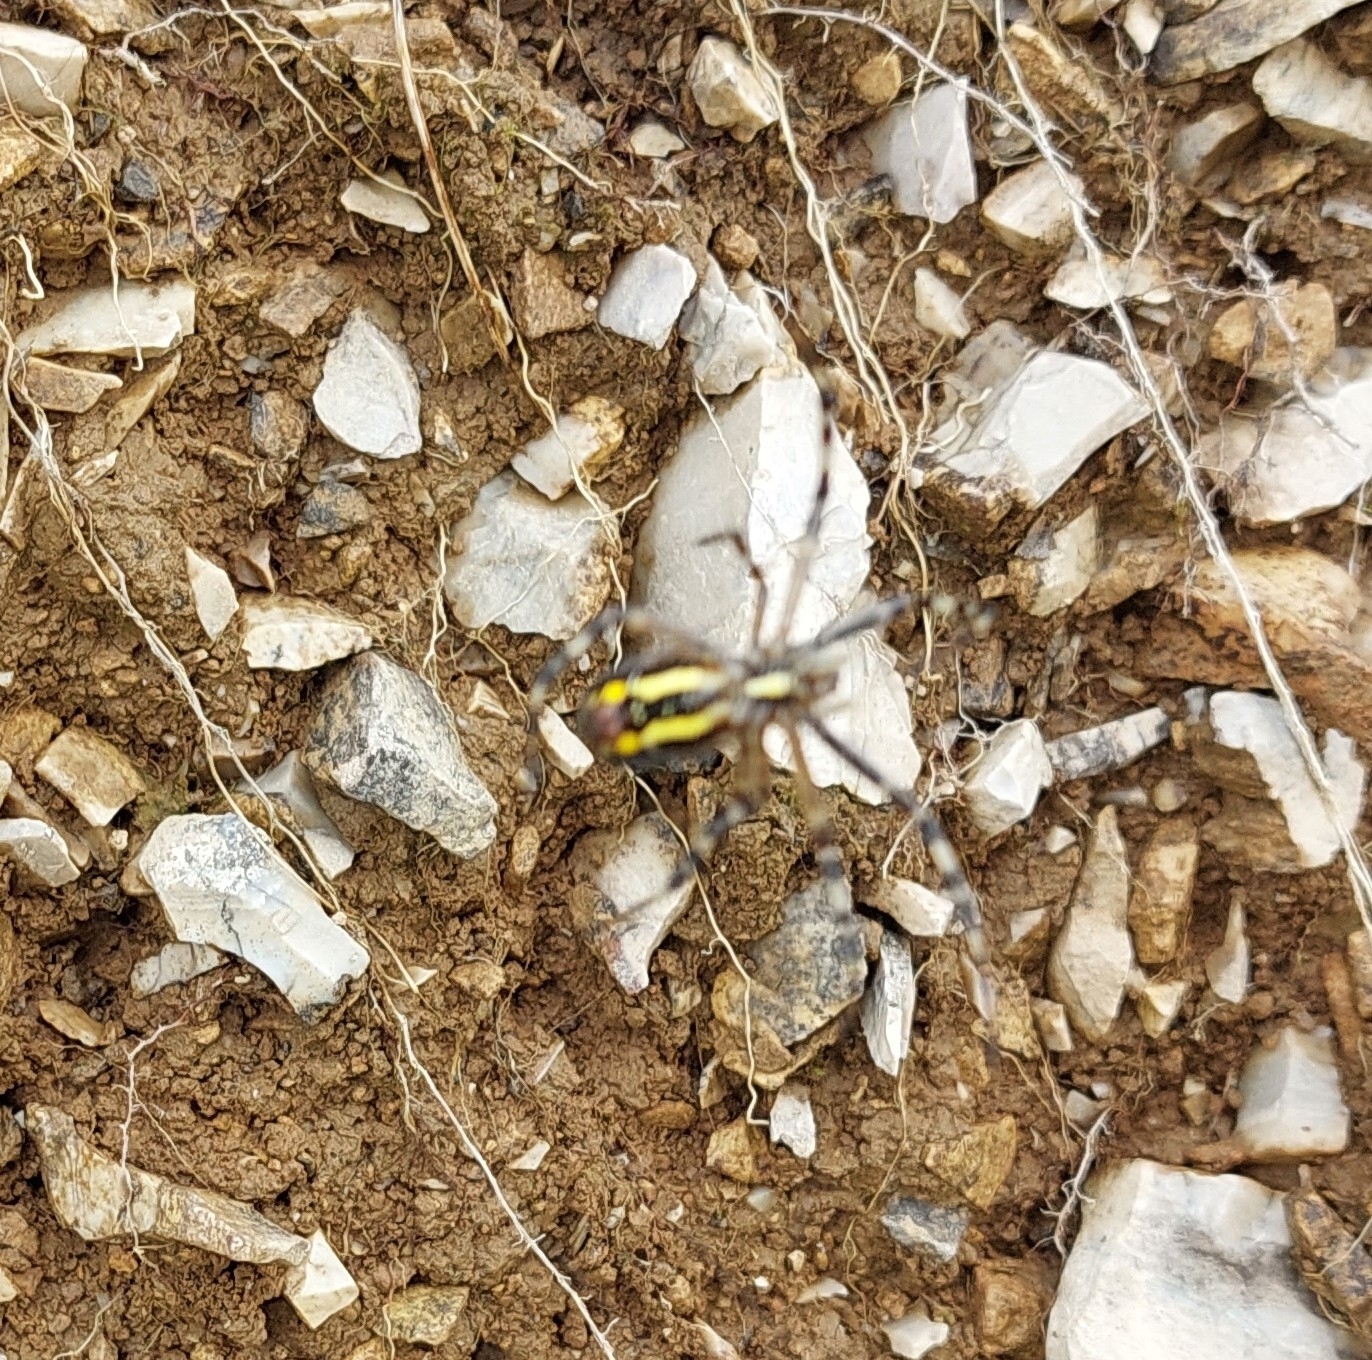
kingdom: Animalia
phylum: Arthropoda
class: Arachnida
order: Araneae
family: Araneidae
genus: Argiope
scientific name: Argiope bruennichi
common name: Wasp spider
